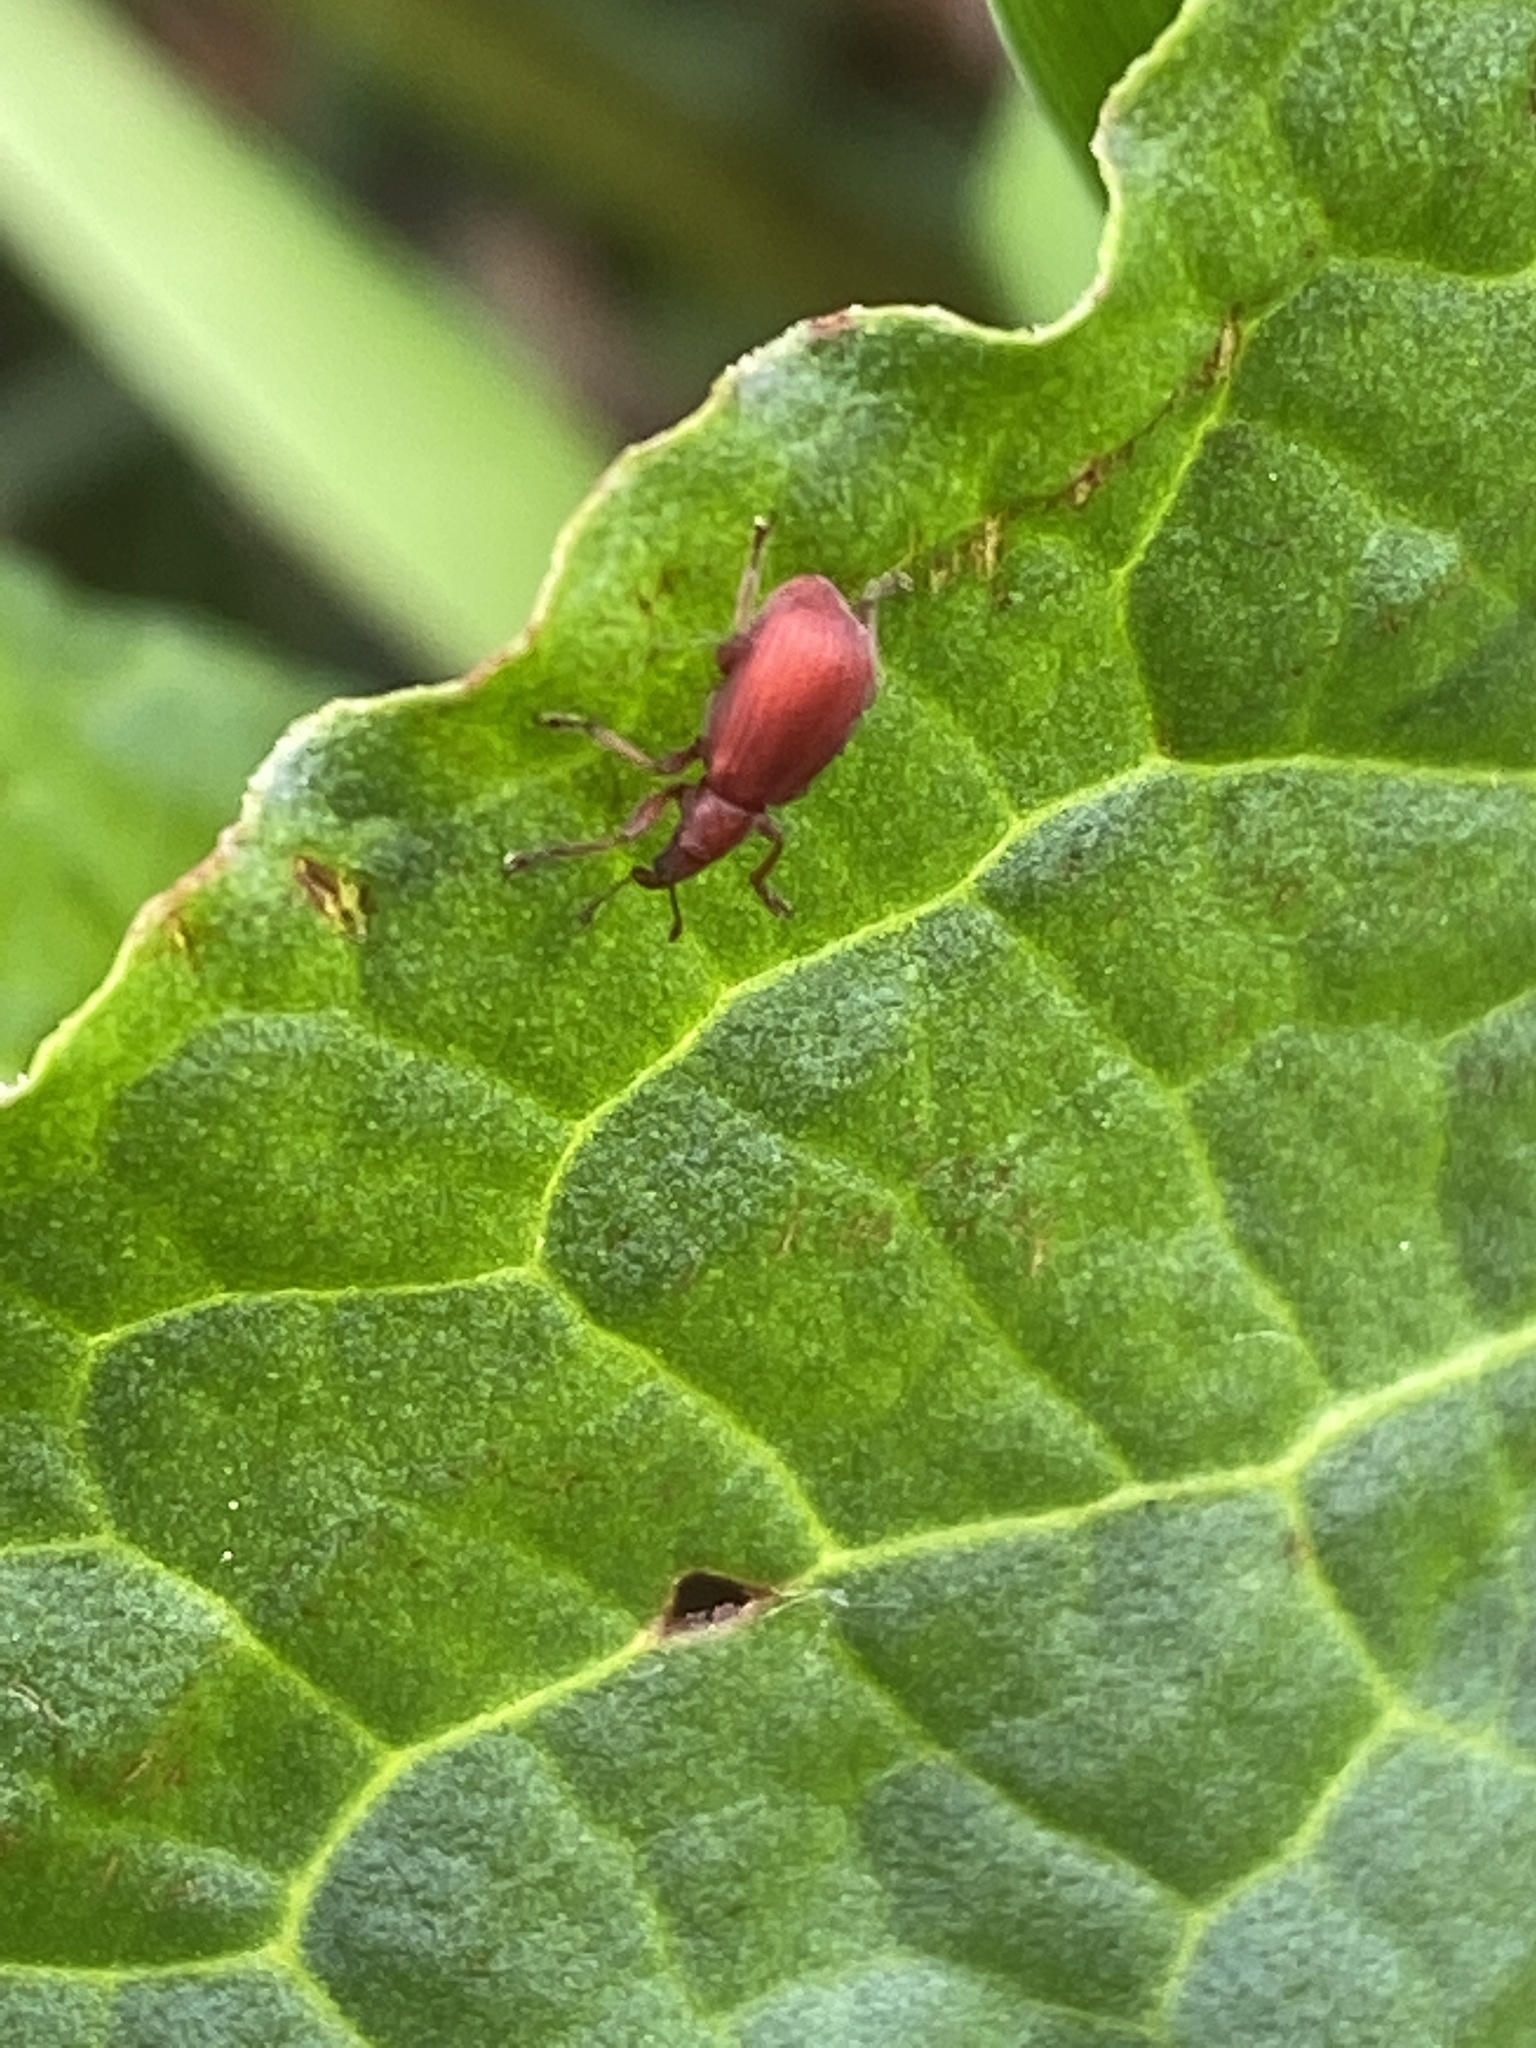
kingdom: Animalia
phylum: Arthropoda
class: Insecta
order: Coleoptera
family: Apionidae
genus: Apion
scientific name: Apion frumentarium
